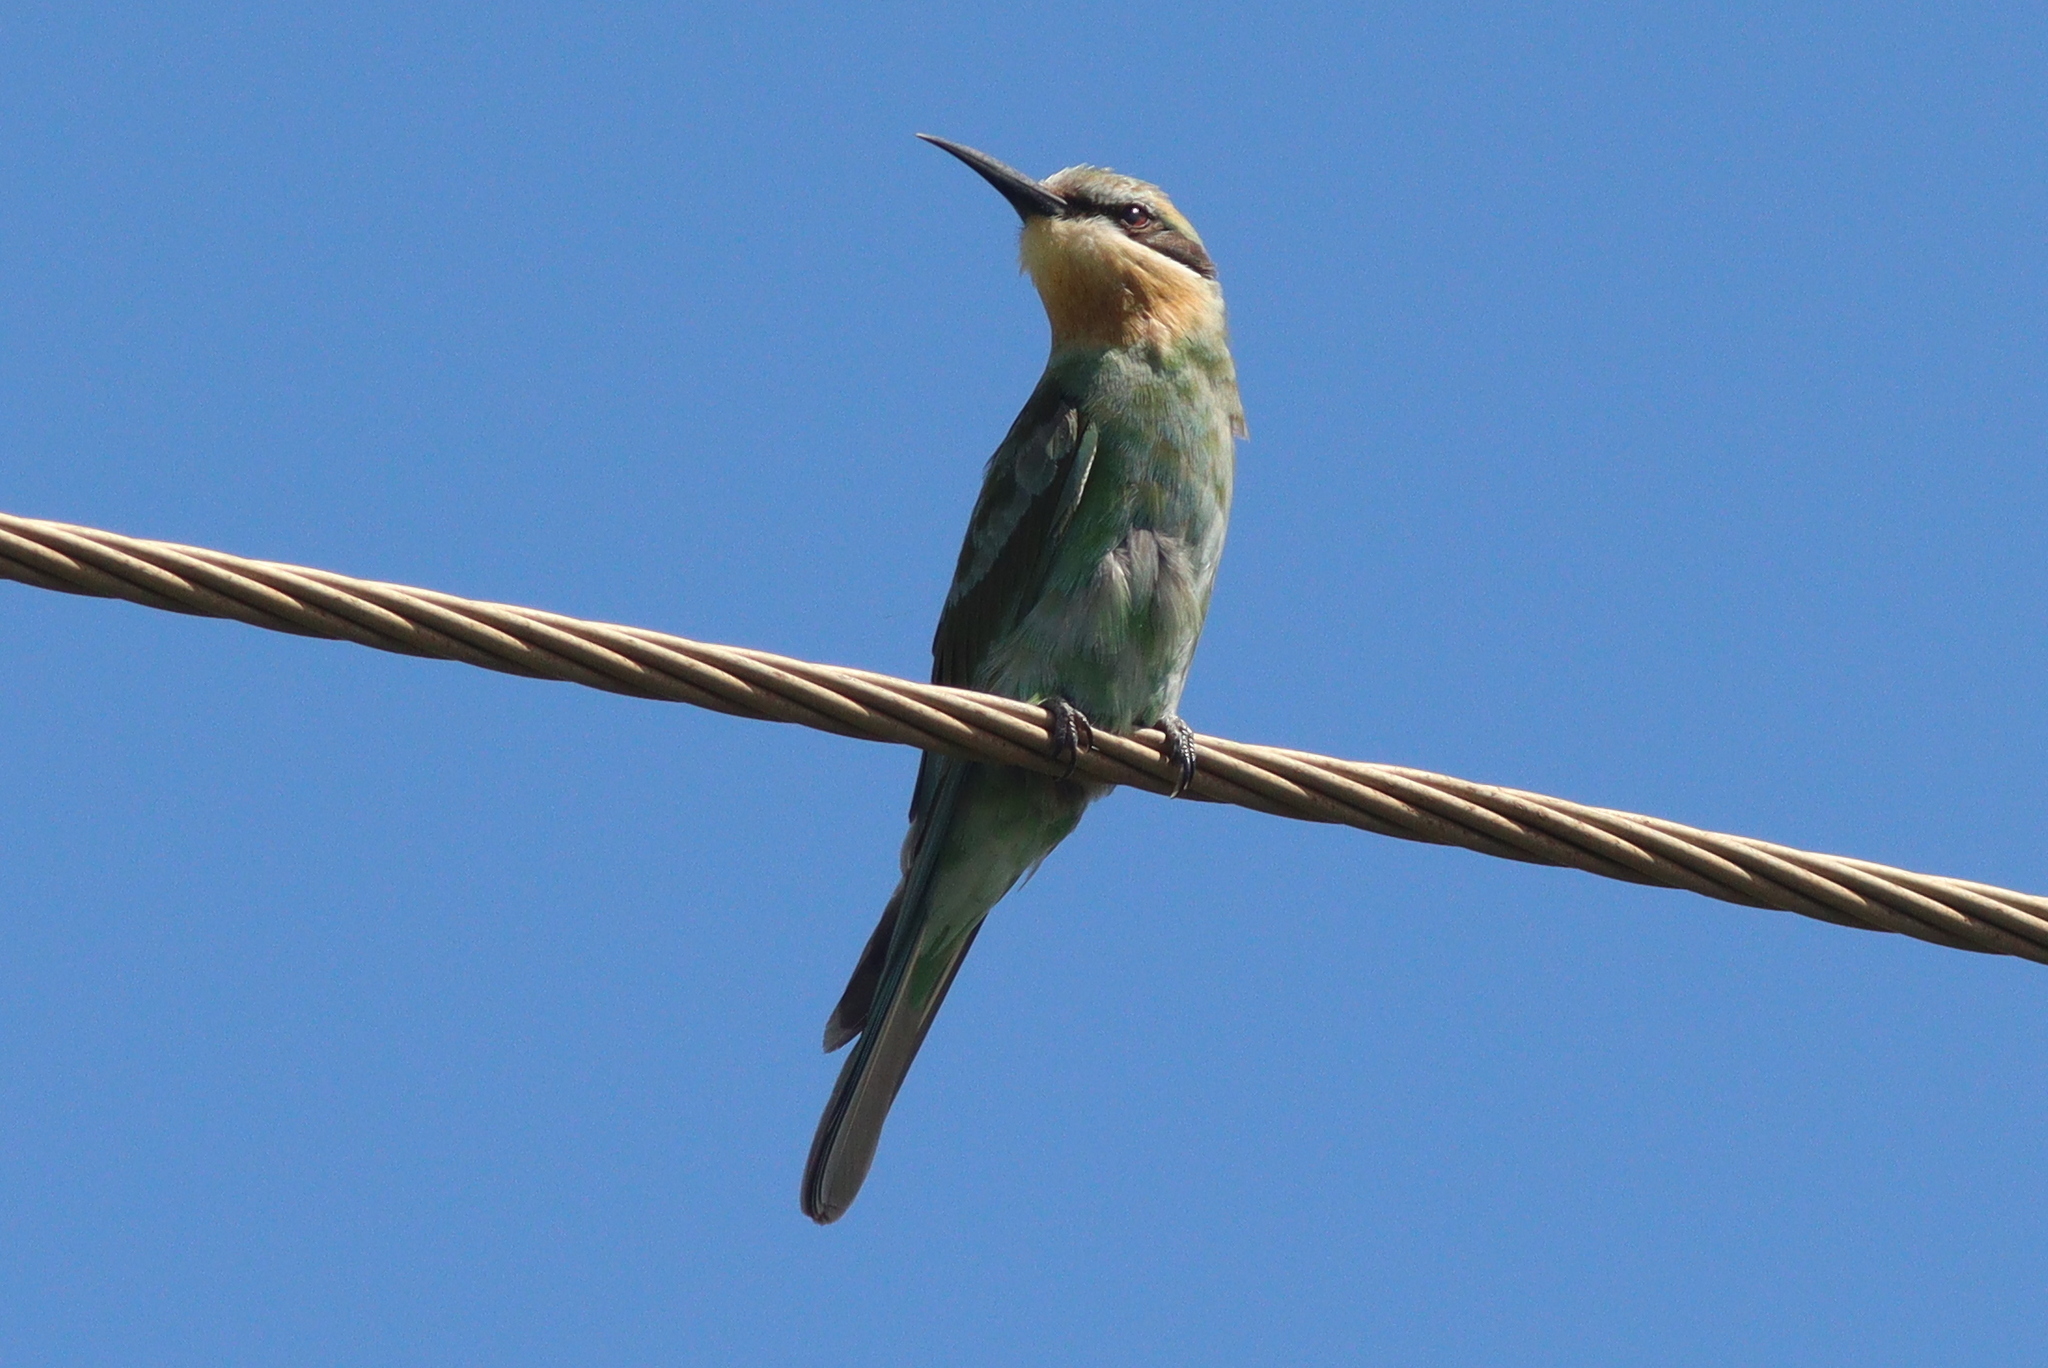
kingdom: Animalia
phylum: Chordata
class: Aves
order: Coraciiformes
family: Meropidae
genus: Merops
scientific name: Merops persicus
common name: Blue-cheeked bee-eater
